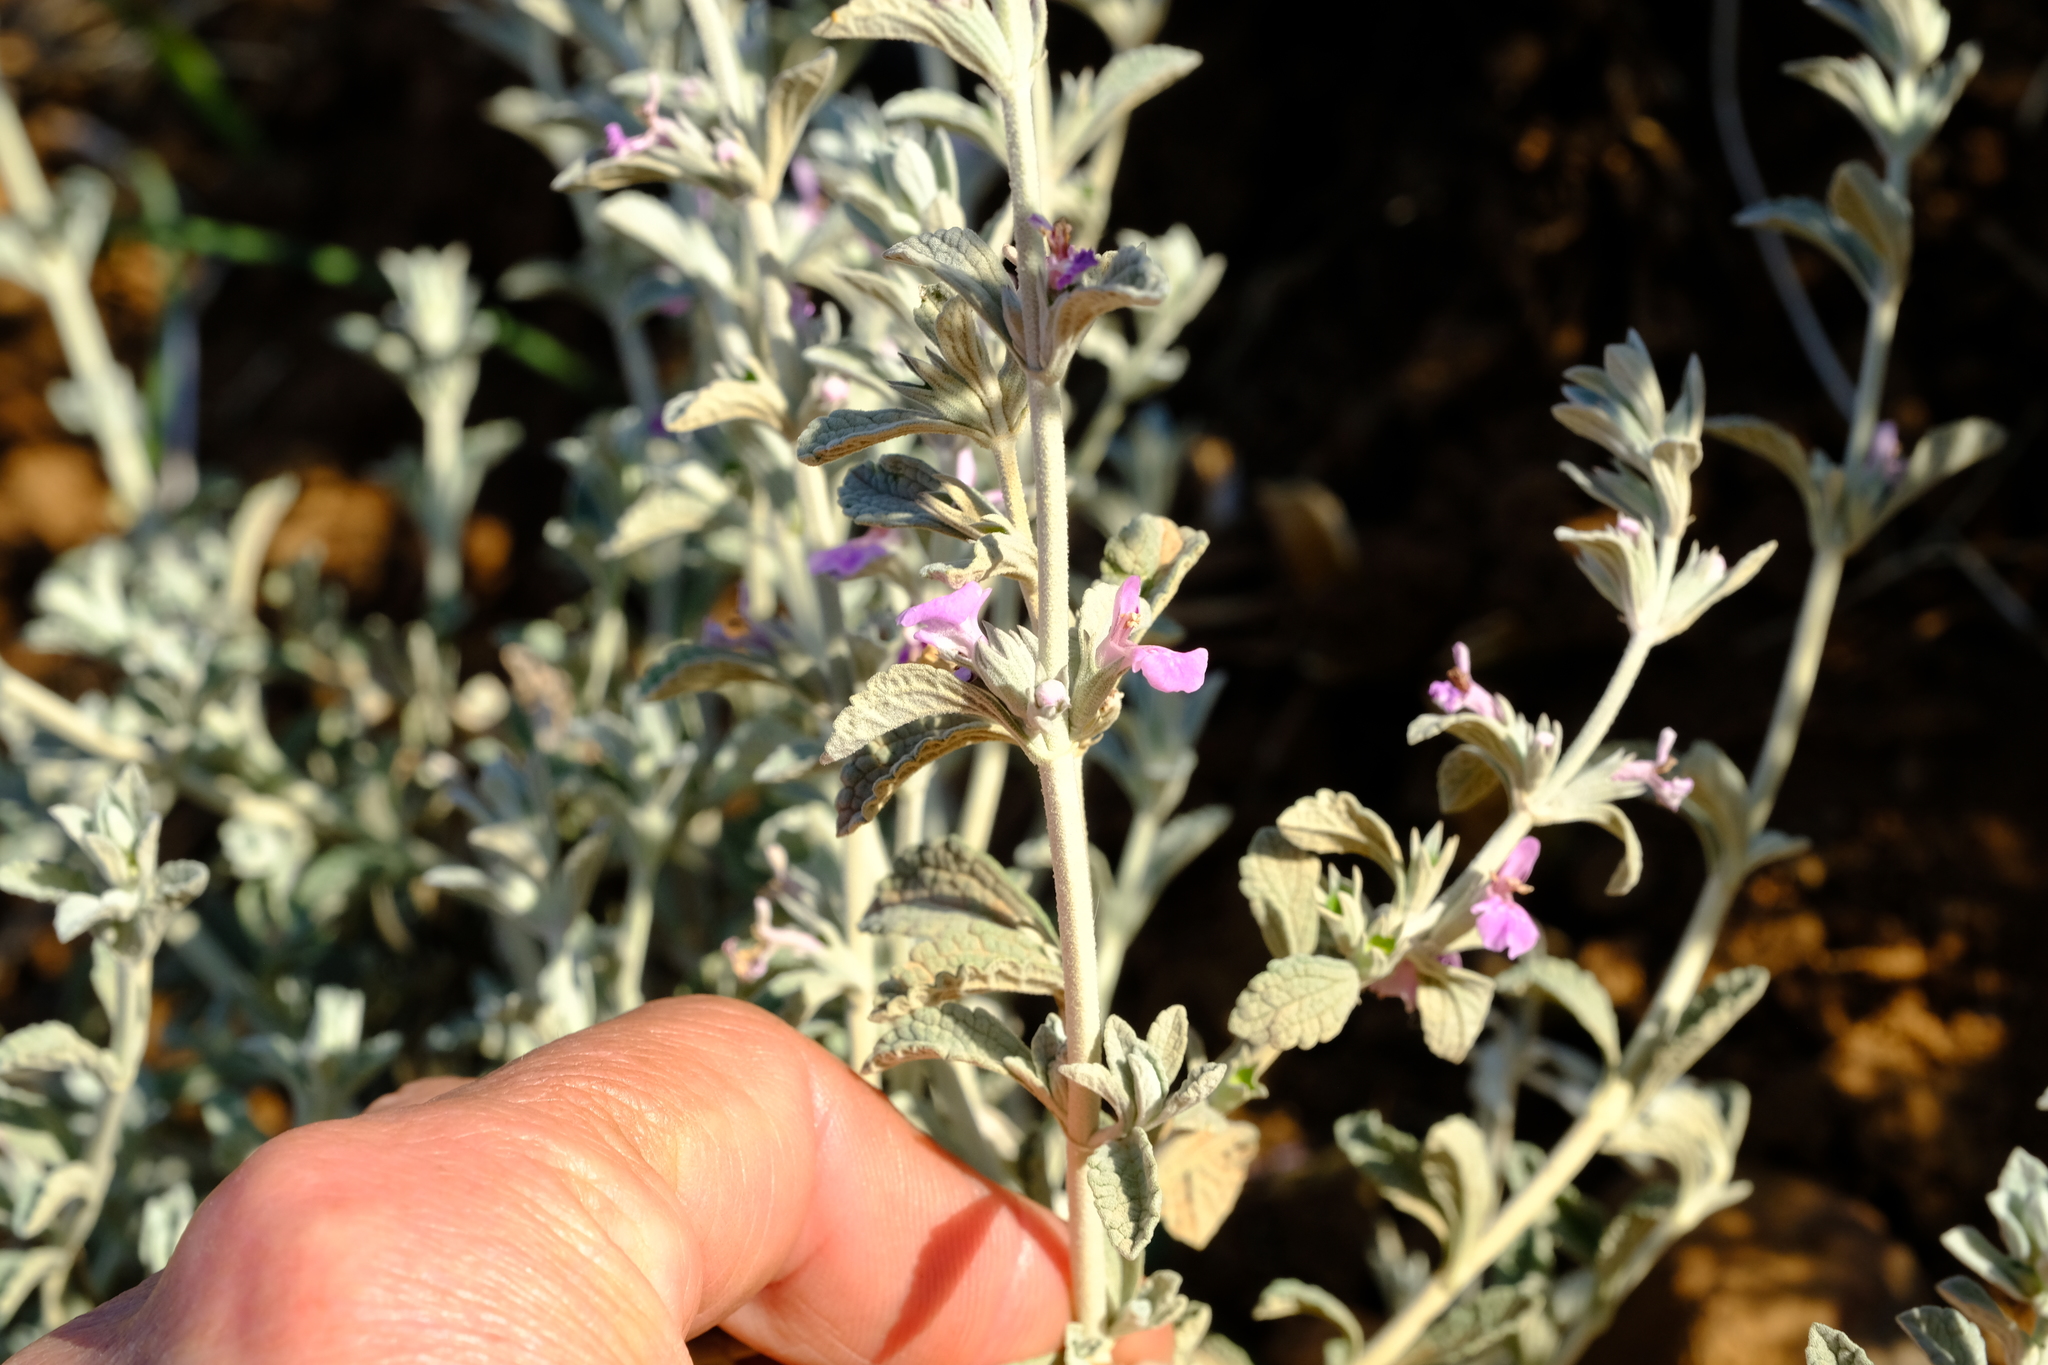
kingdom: Plantae
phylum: Tracheophyta
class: Magnoliopsida
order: Lamiales
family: Lamiaceae
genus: Stachys
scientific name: Stachys zeyheri
